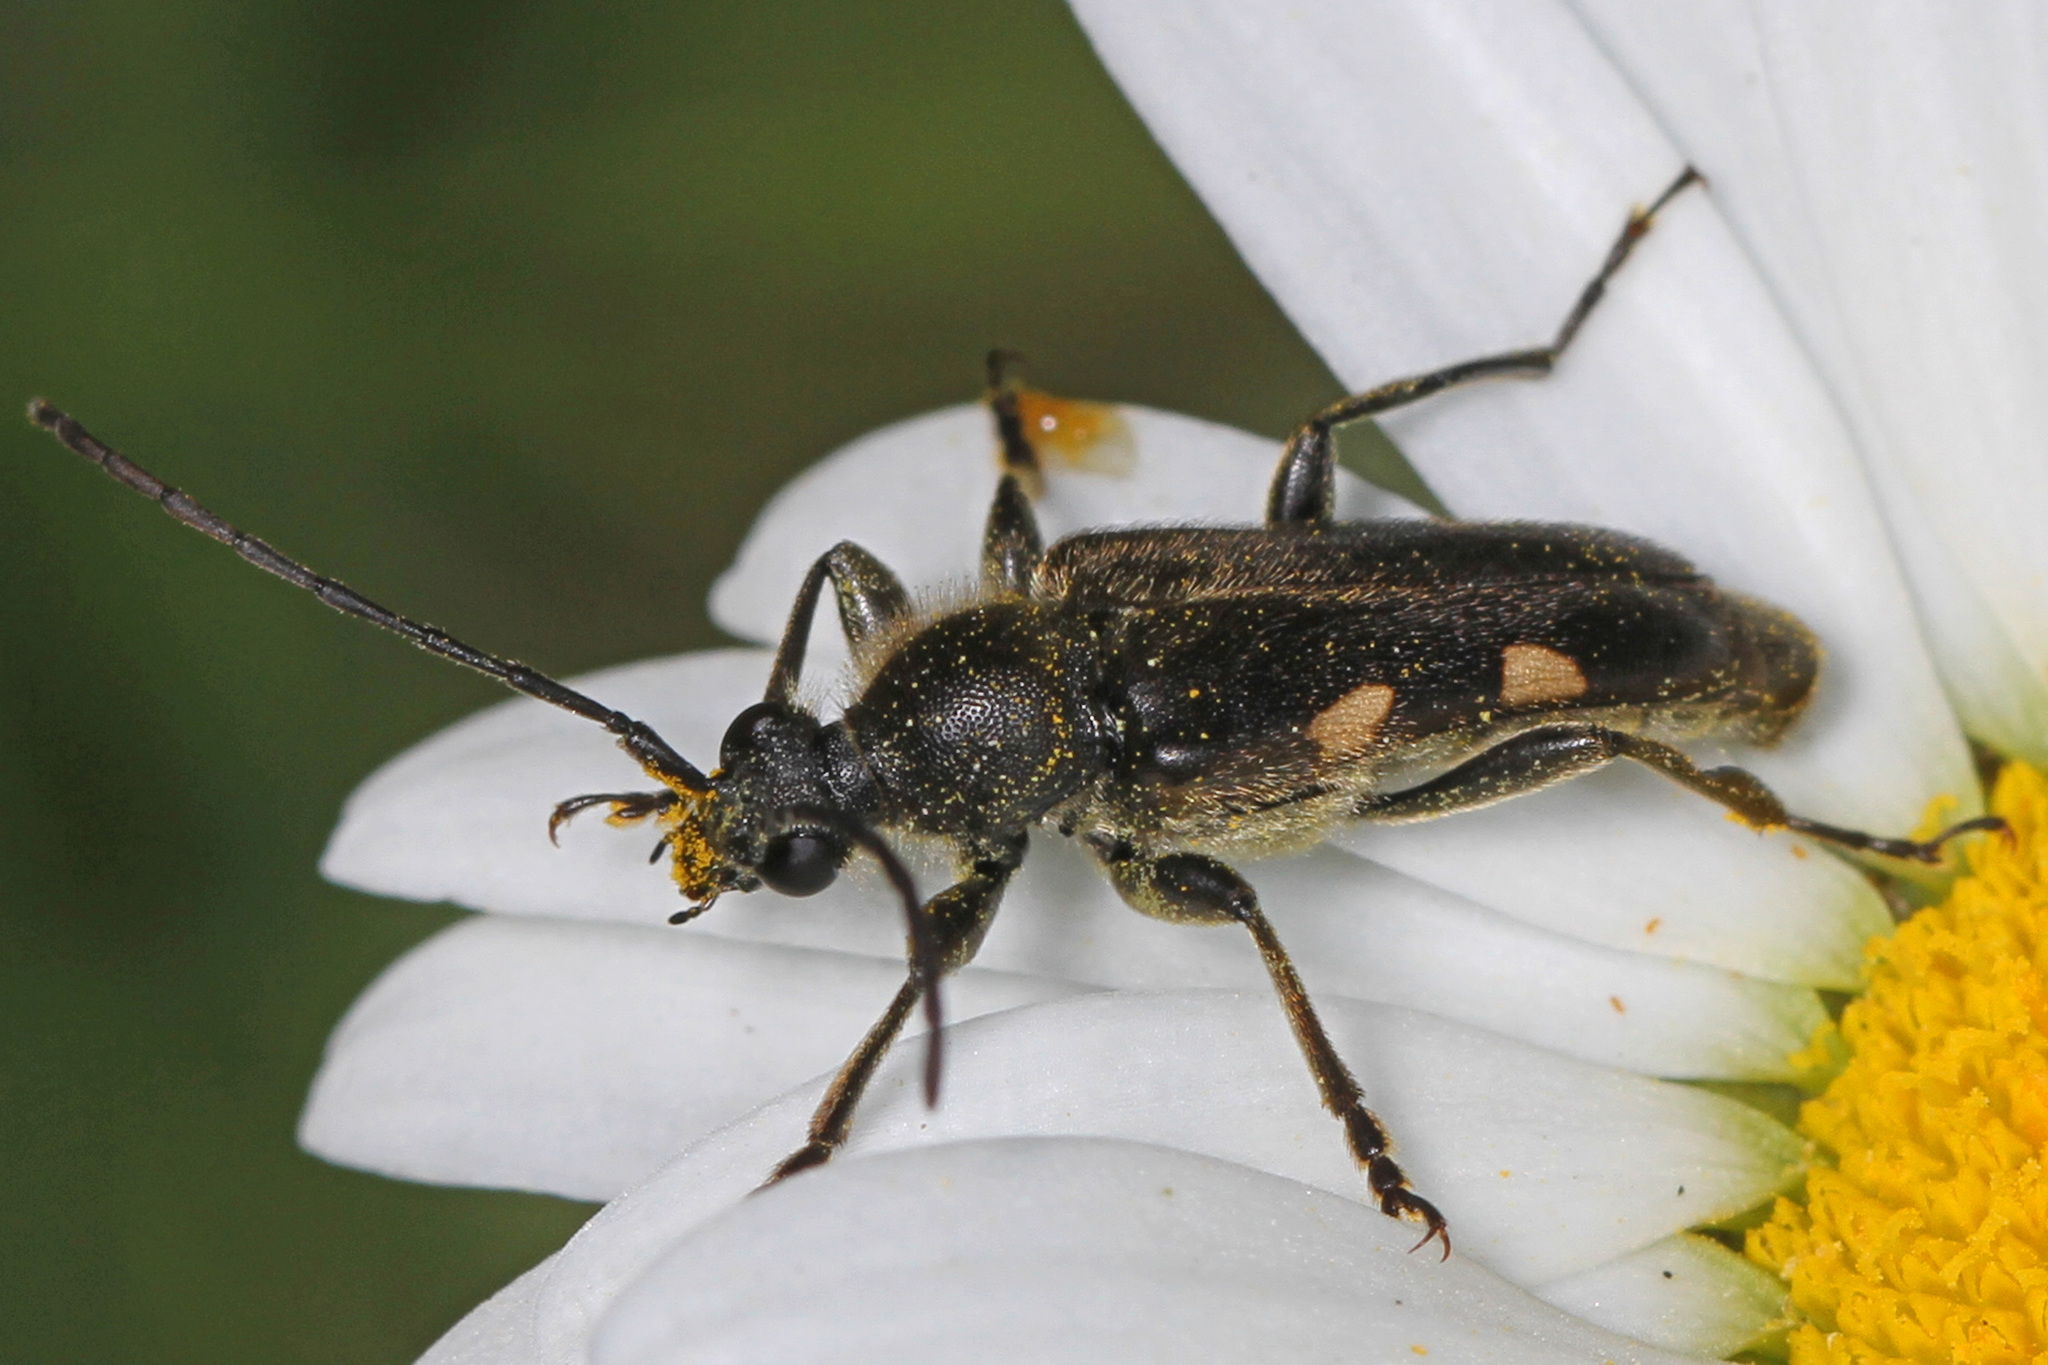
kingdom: Animalia
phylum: Arthropoda
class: Insecta
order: Coleoptera
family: Cerambycidae
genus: Brachyleptura
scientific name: Brachyleptura vexatrix
